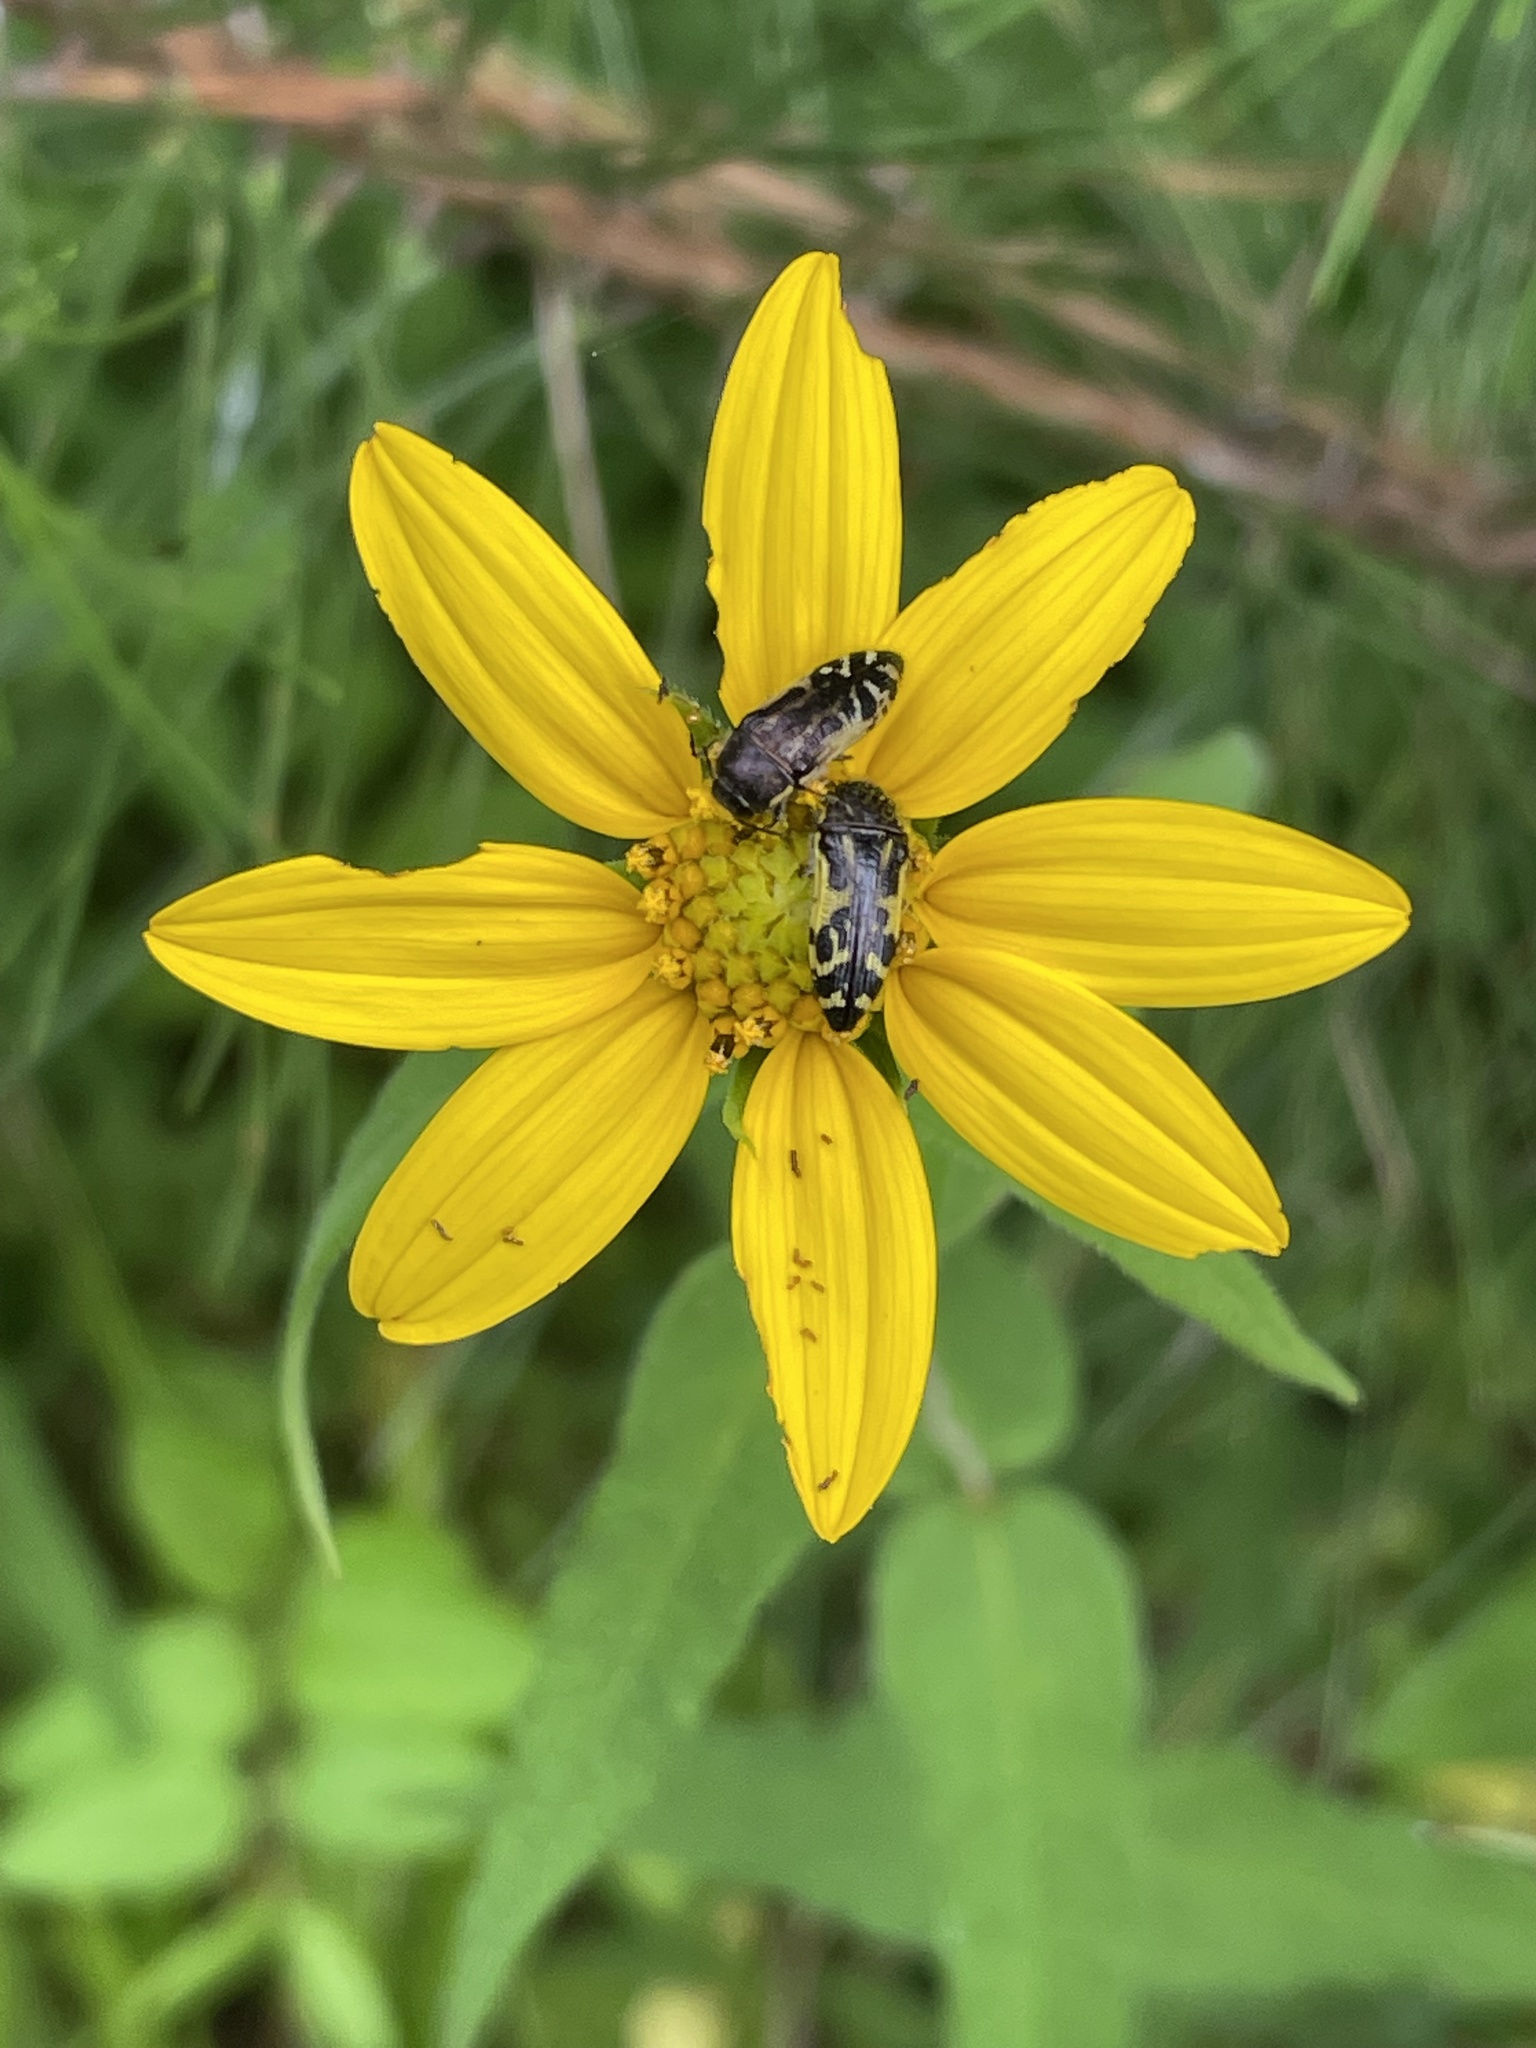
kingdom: Animalia
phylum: Arthropoda
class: Insecta
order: Coleoptera
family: Buprestidae
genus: Acmaeodera
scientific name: Acmaeodera pulchella
